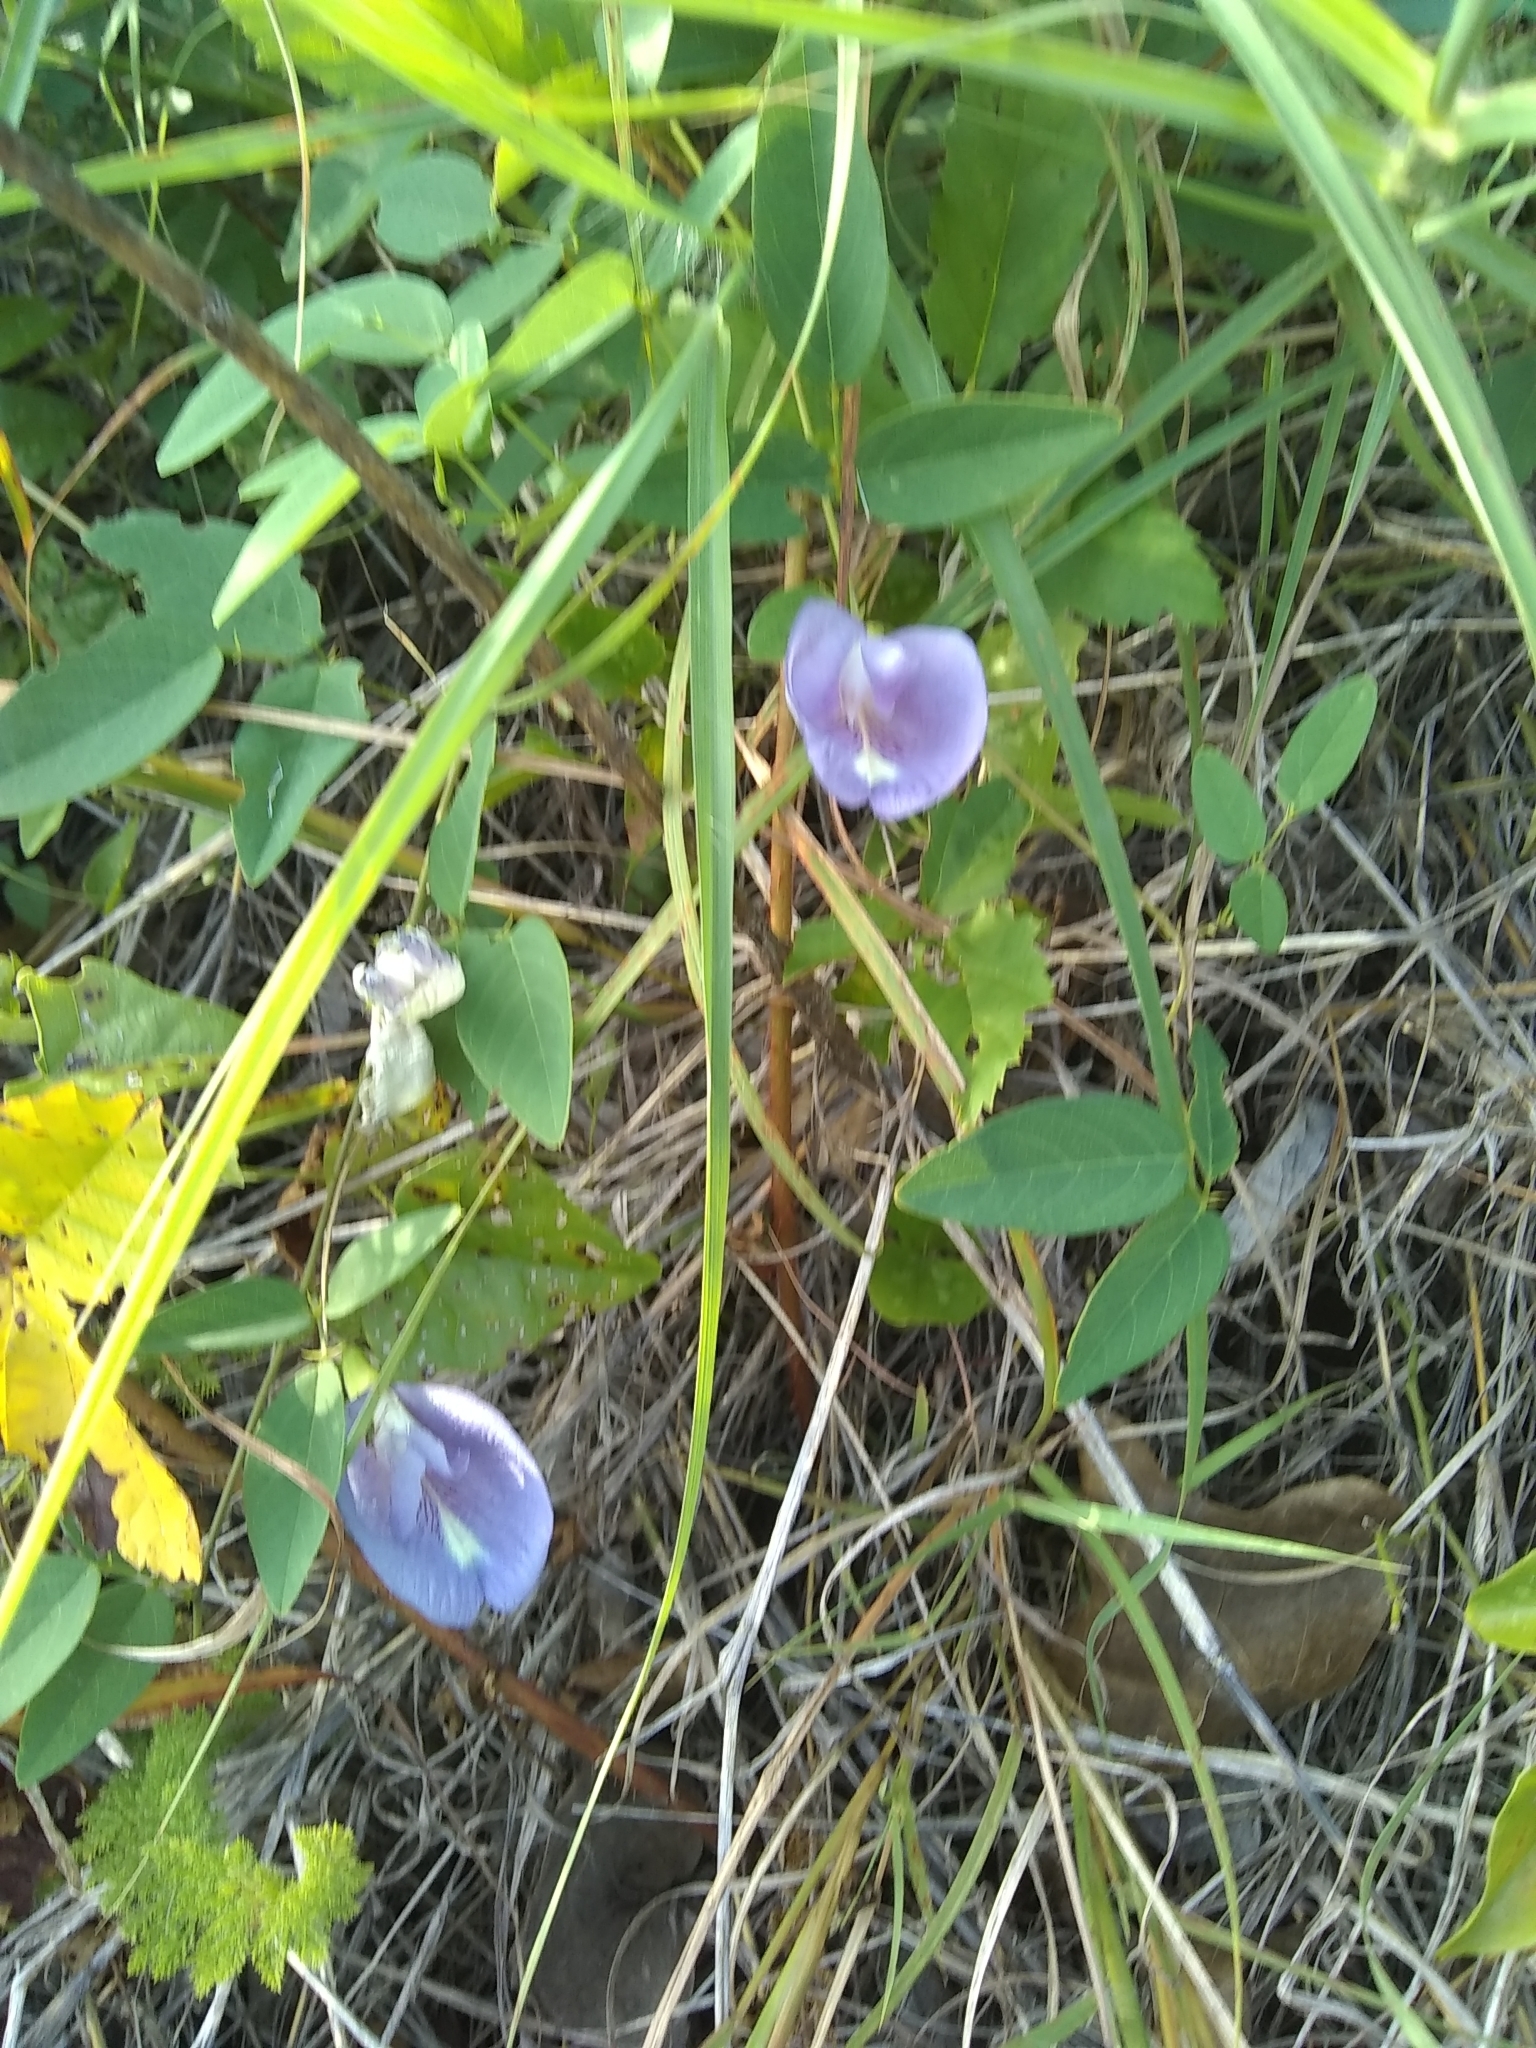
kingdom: Plantae
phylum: Tracheophyta
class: Magnoliopsida
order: Fabales
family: Fabaceae
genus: Clitoria
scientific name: Clitoria mariana
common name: Butterfly-pea
